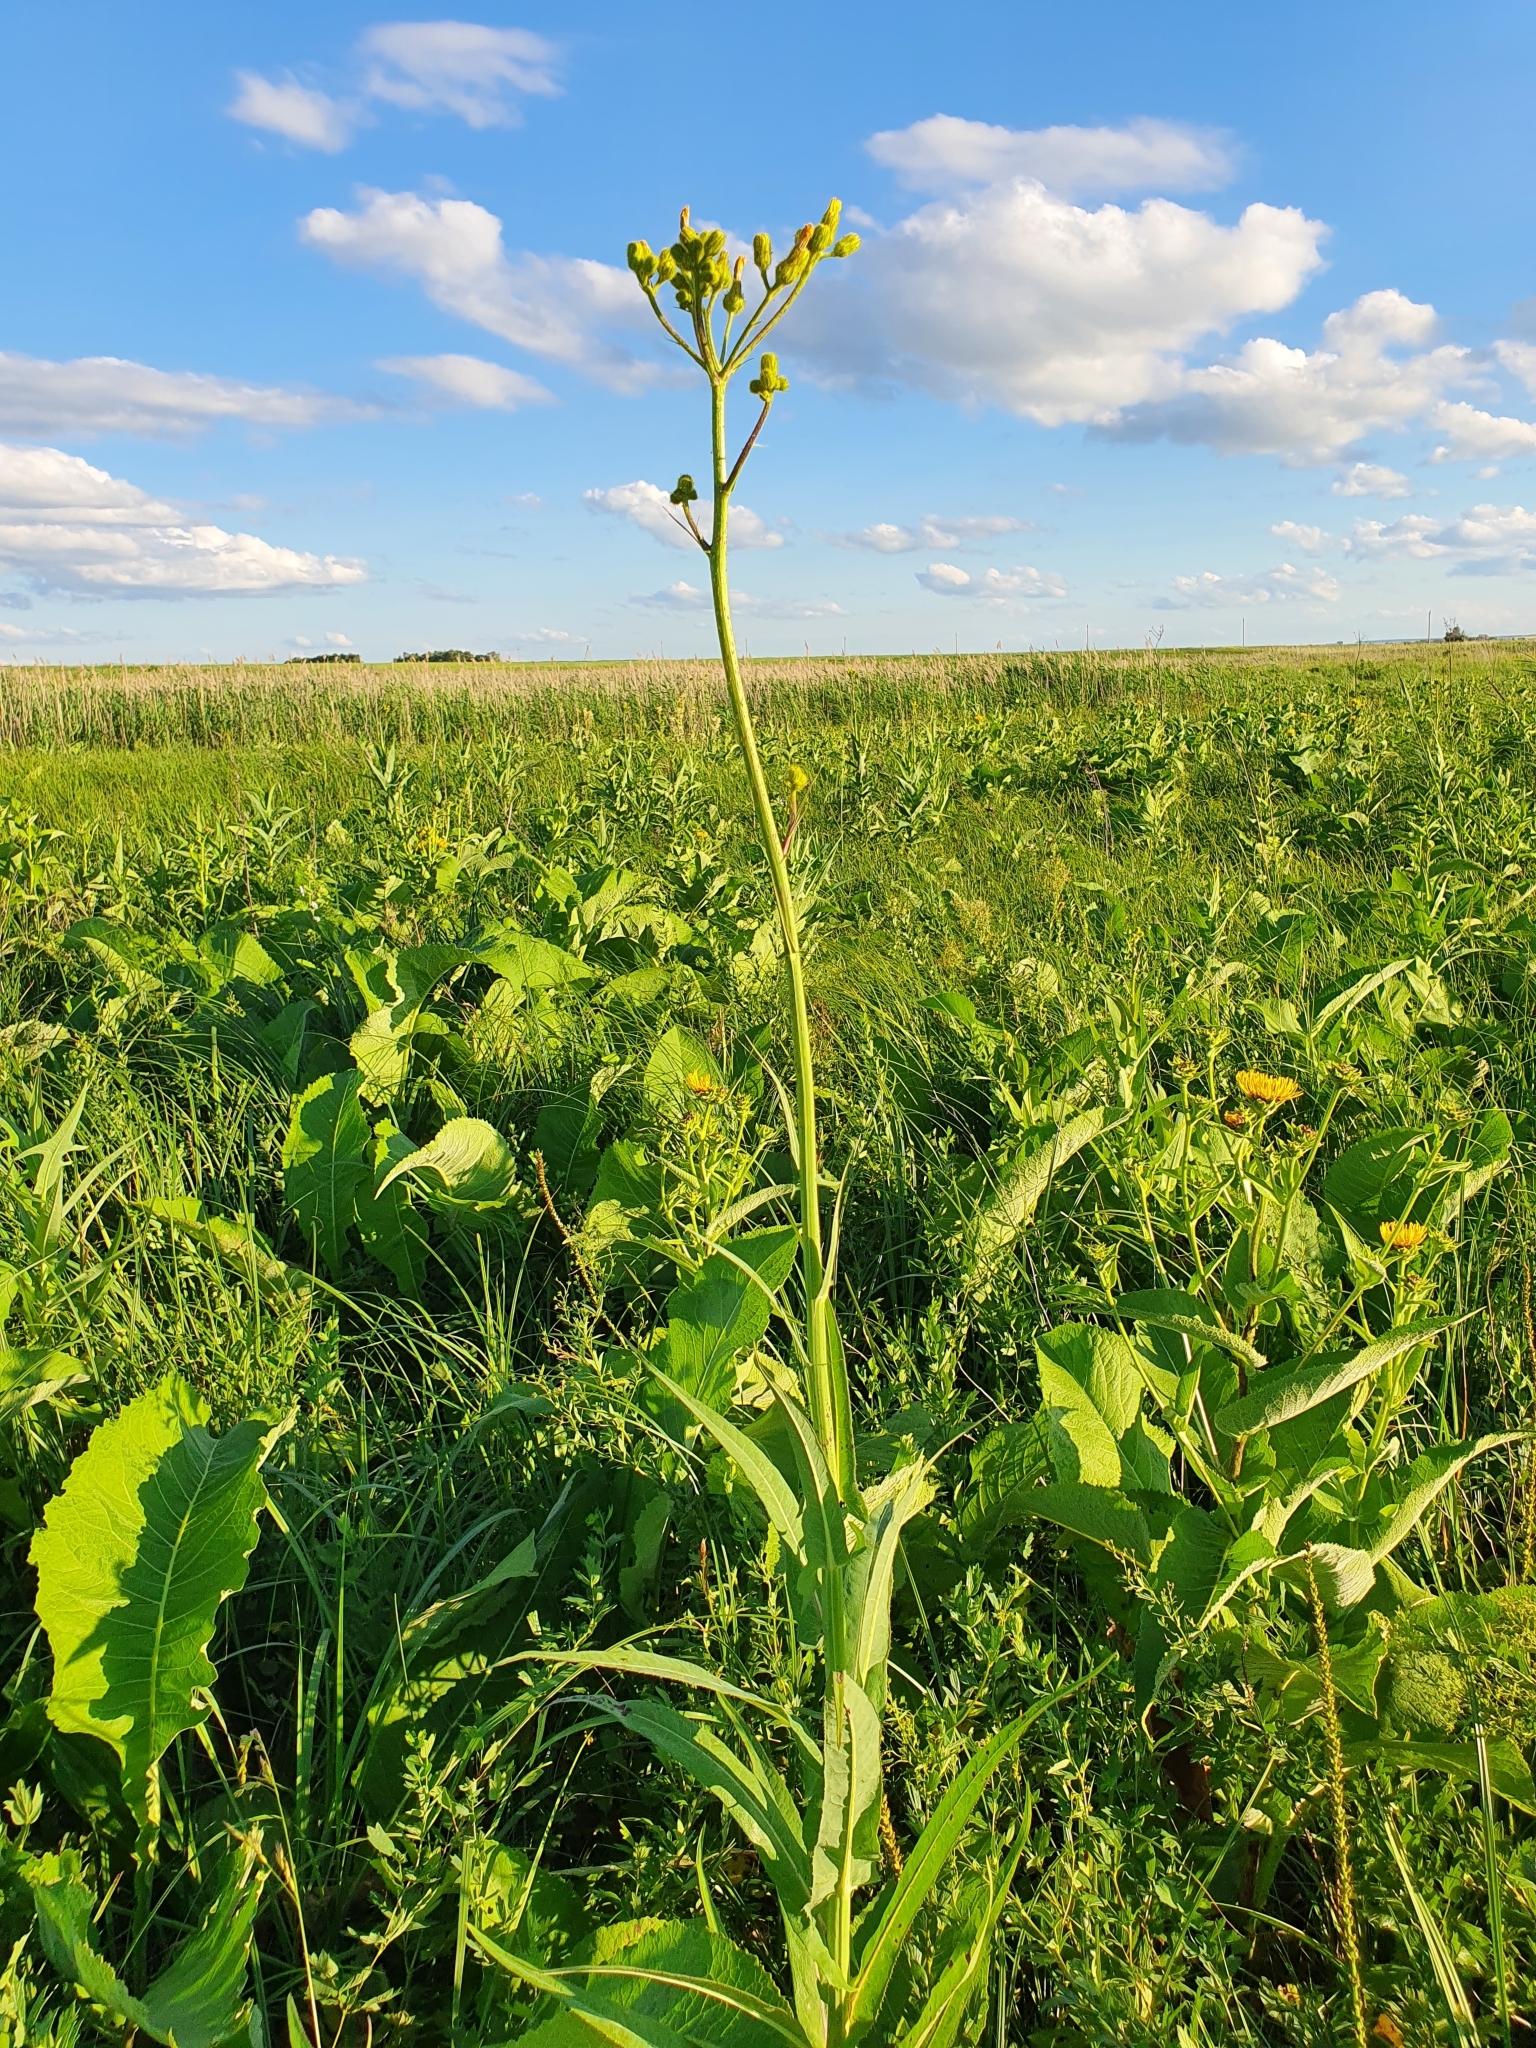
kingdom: Plantae
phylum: Tracheophyta
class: Magnoliopsida
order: Asterales
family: Asteraceae
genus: Sonchus
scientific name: Sonchus palustris
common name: Marsh sow-thistle
